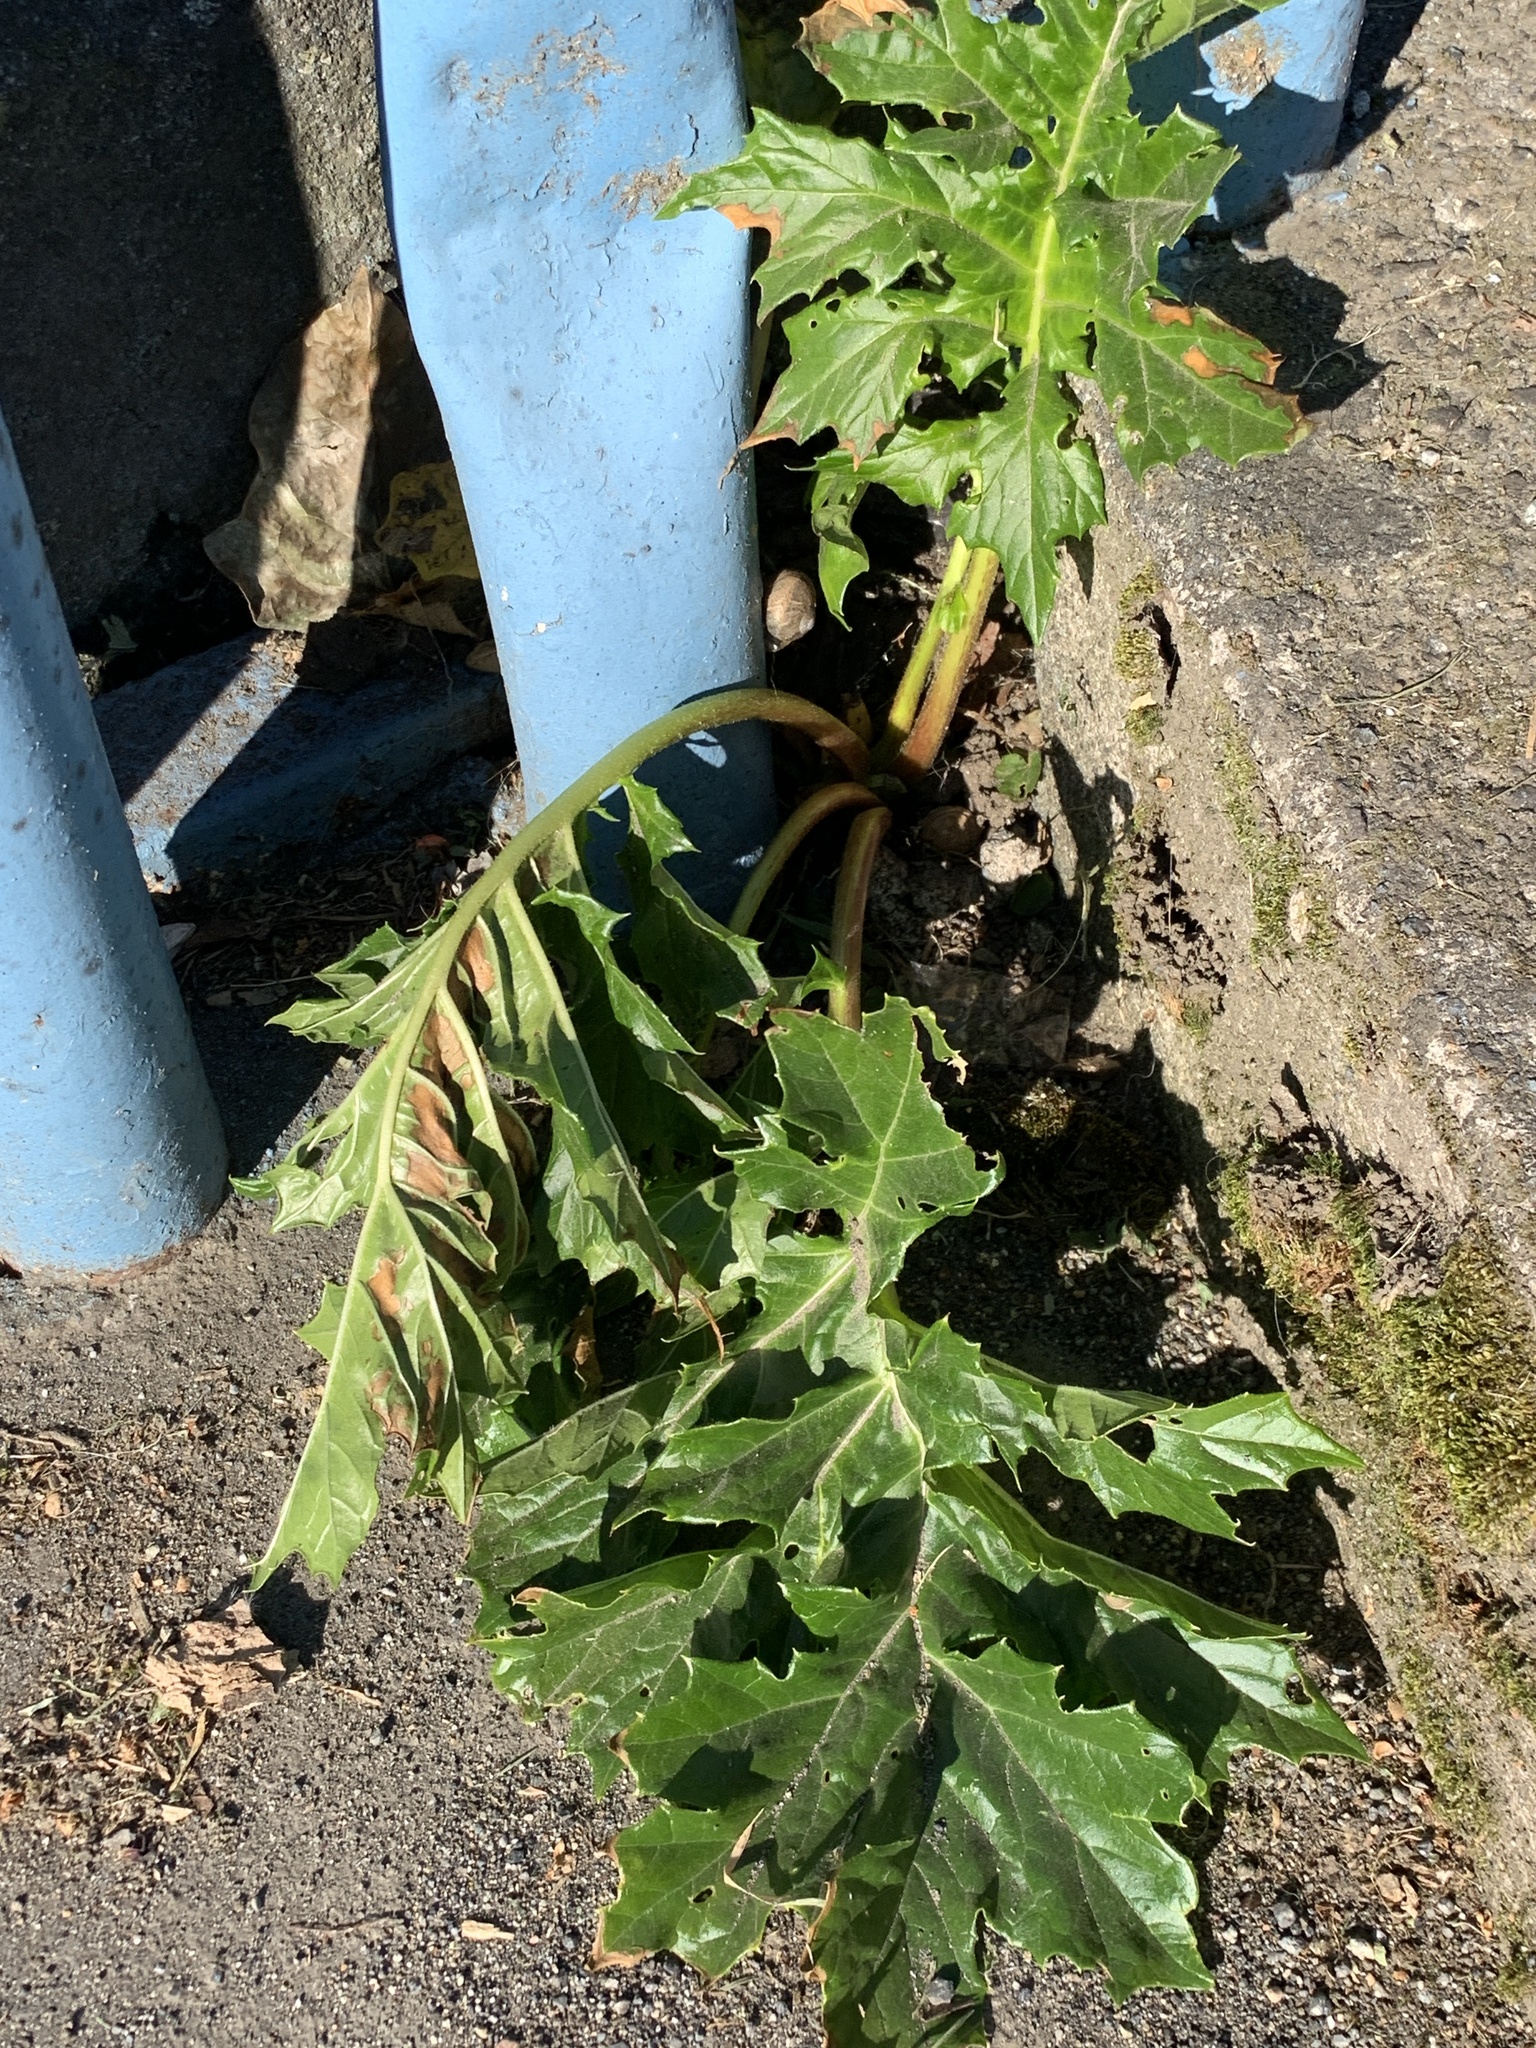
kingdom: Plantae
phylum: Tracheophyta
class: Magnoliopsida
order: Lamiales
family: Acanthaceae
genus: Acanthus
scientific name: Acanthus mollis
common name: Bear's-breech
